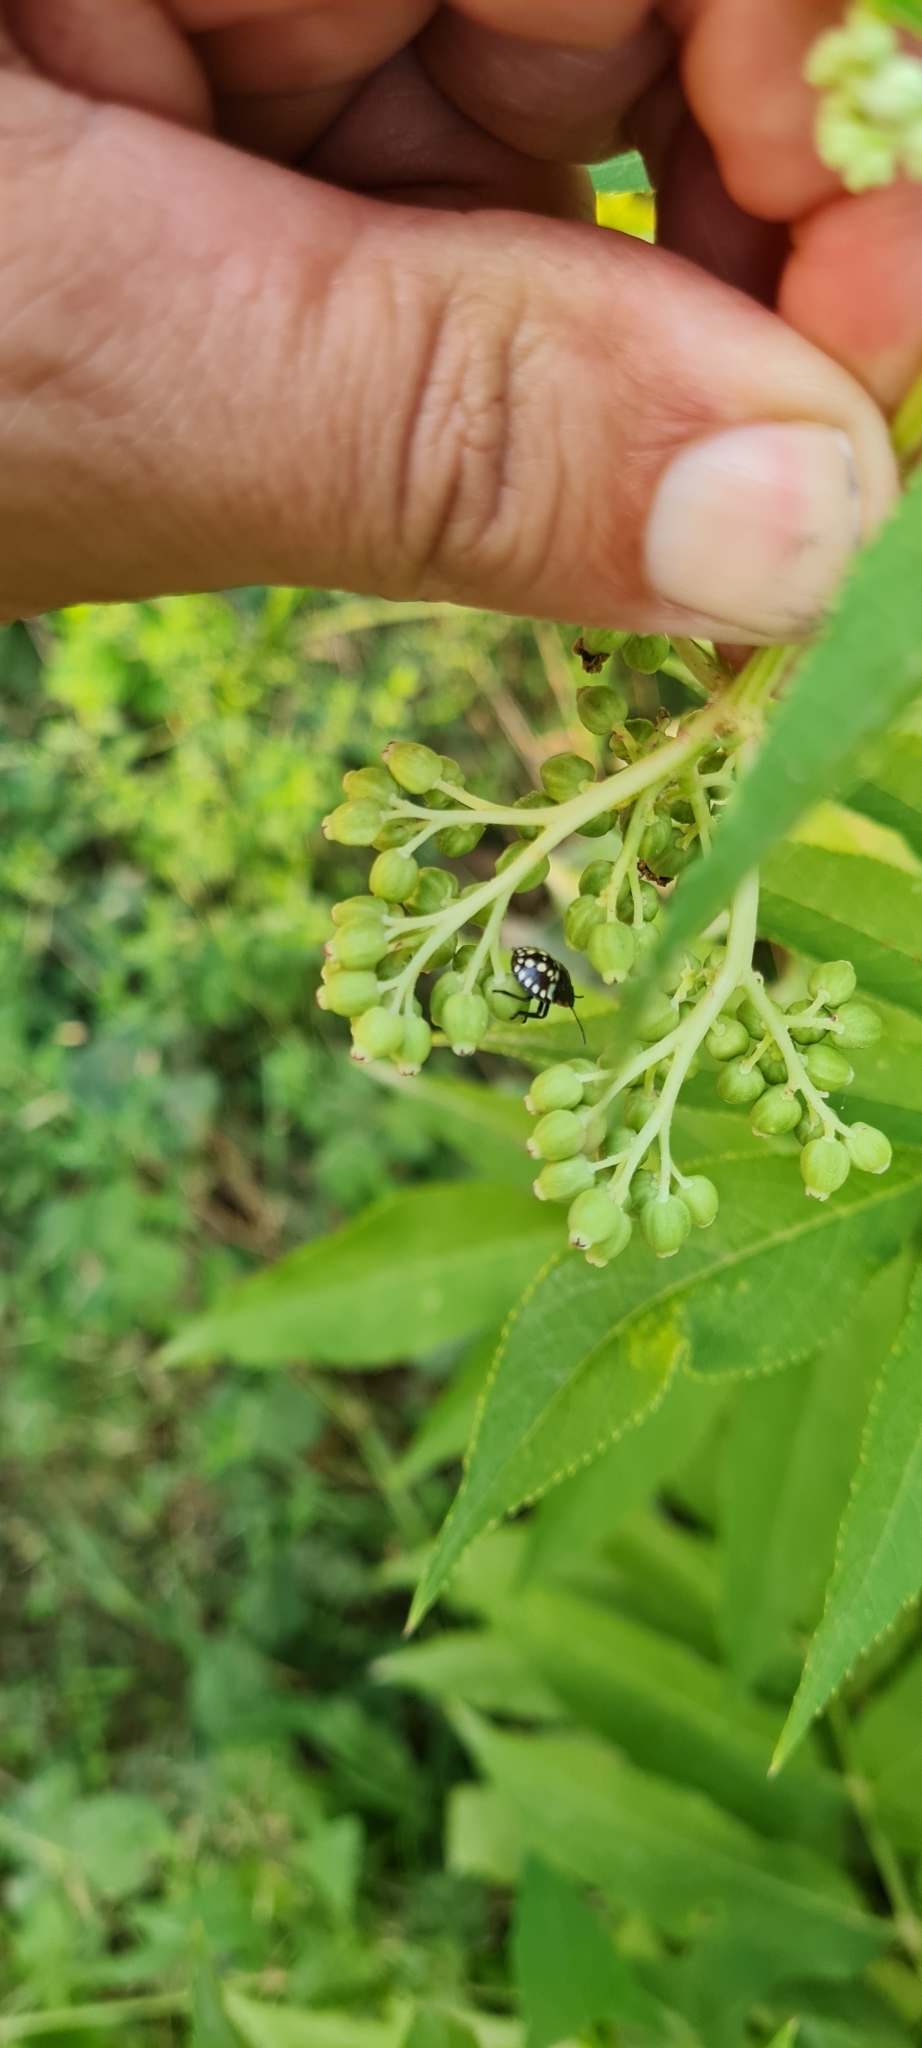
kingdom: Animalia
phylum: Arthropoda
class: Insecta
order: Hemiptera
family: Pentatomidae
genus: Nezara
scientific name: Nezara viridula
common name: Southern green stink bug
